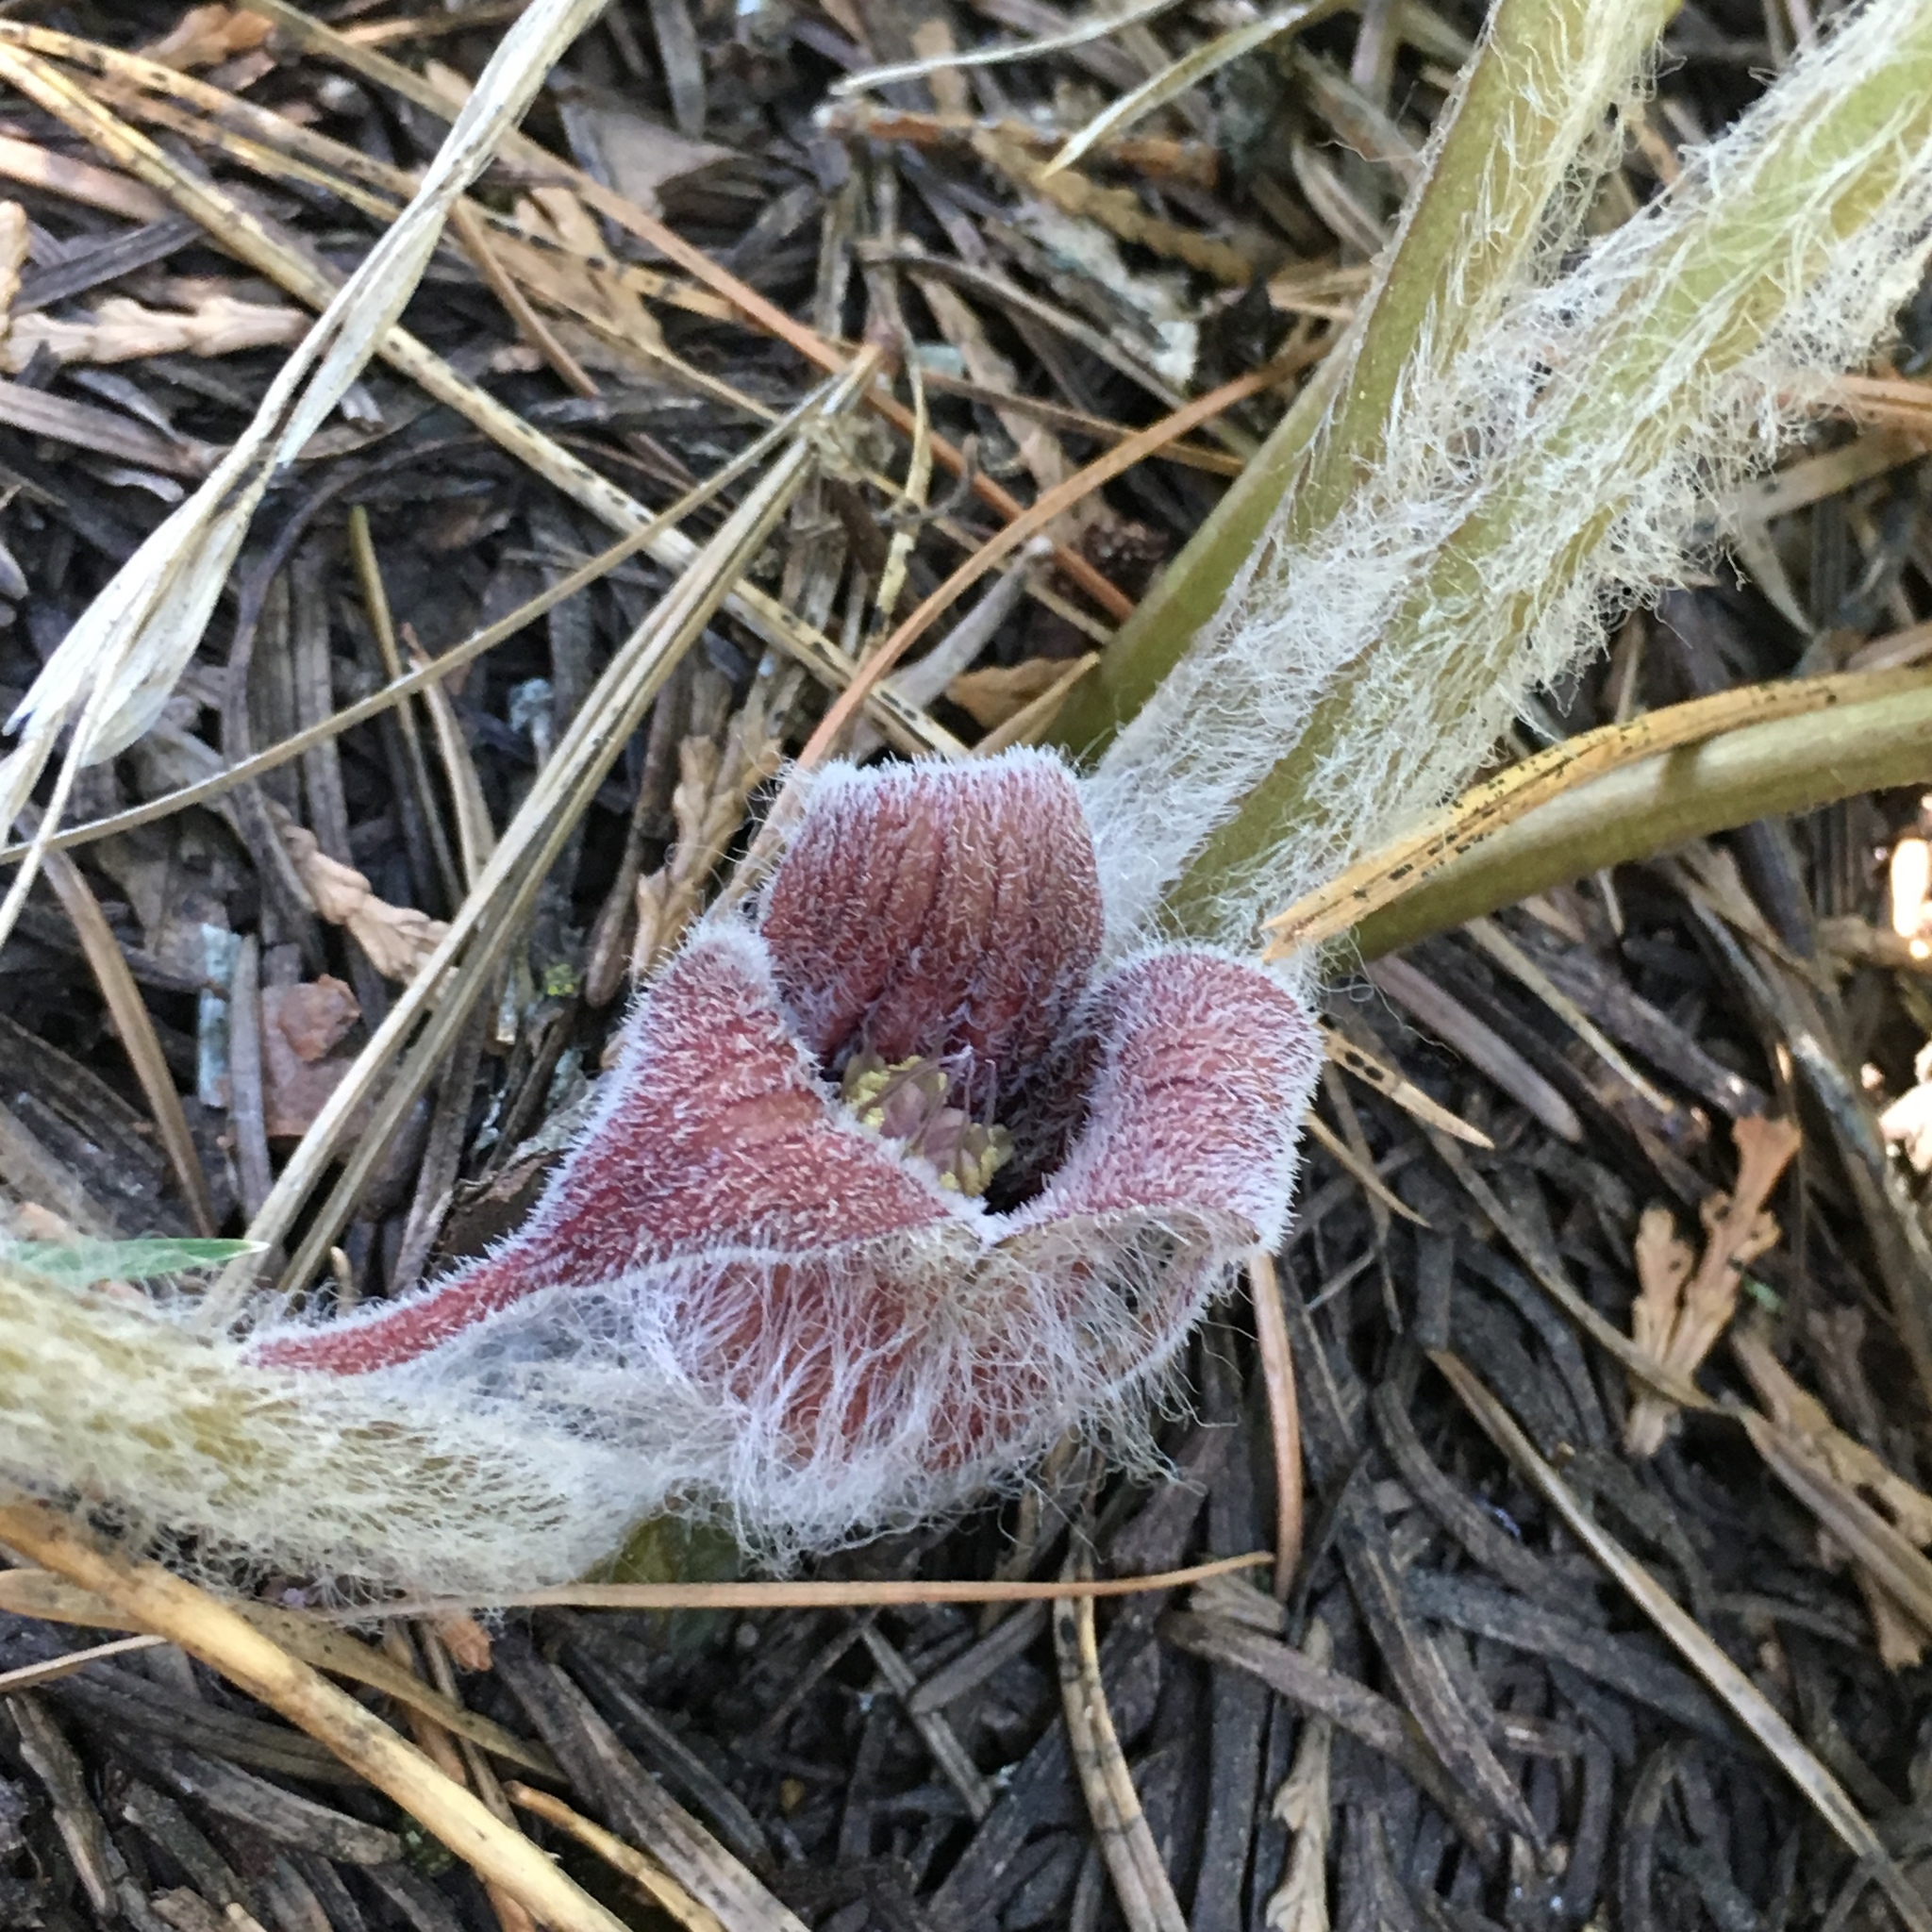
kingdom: Plantae
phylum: Tracheophyta
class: Magnoliopsida
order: Piperales
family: Aristolochiaceae
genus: Asarum
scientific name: Asarum hartwegii
